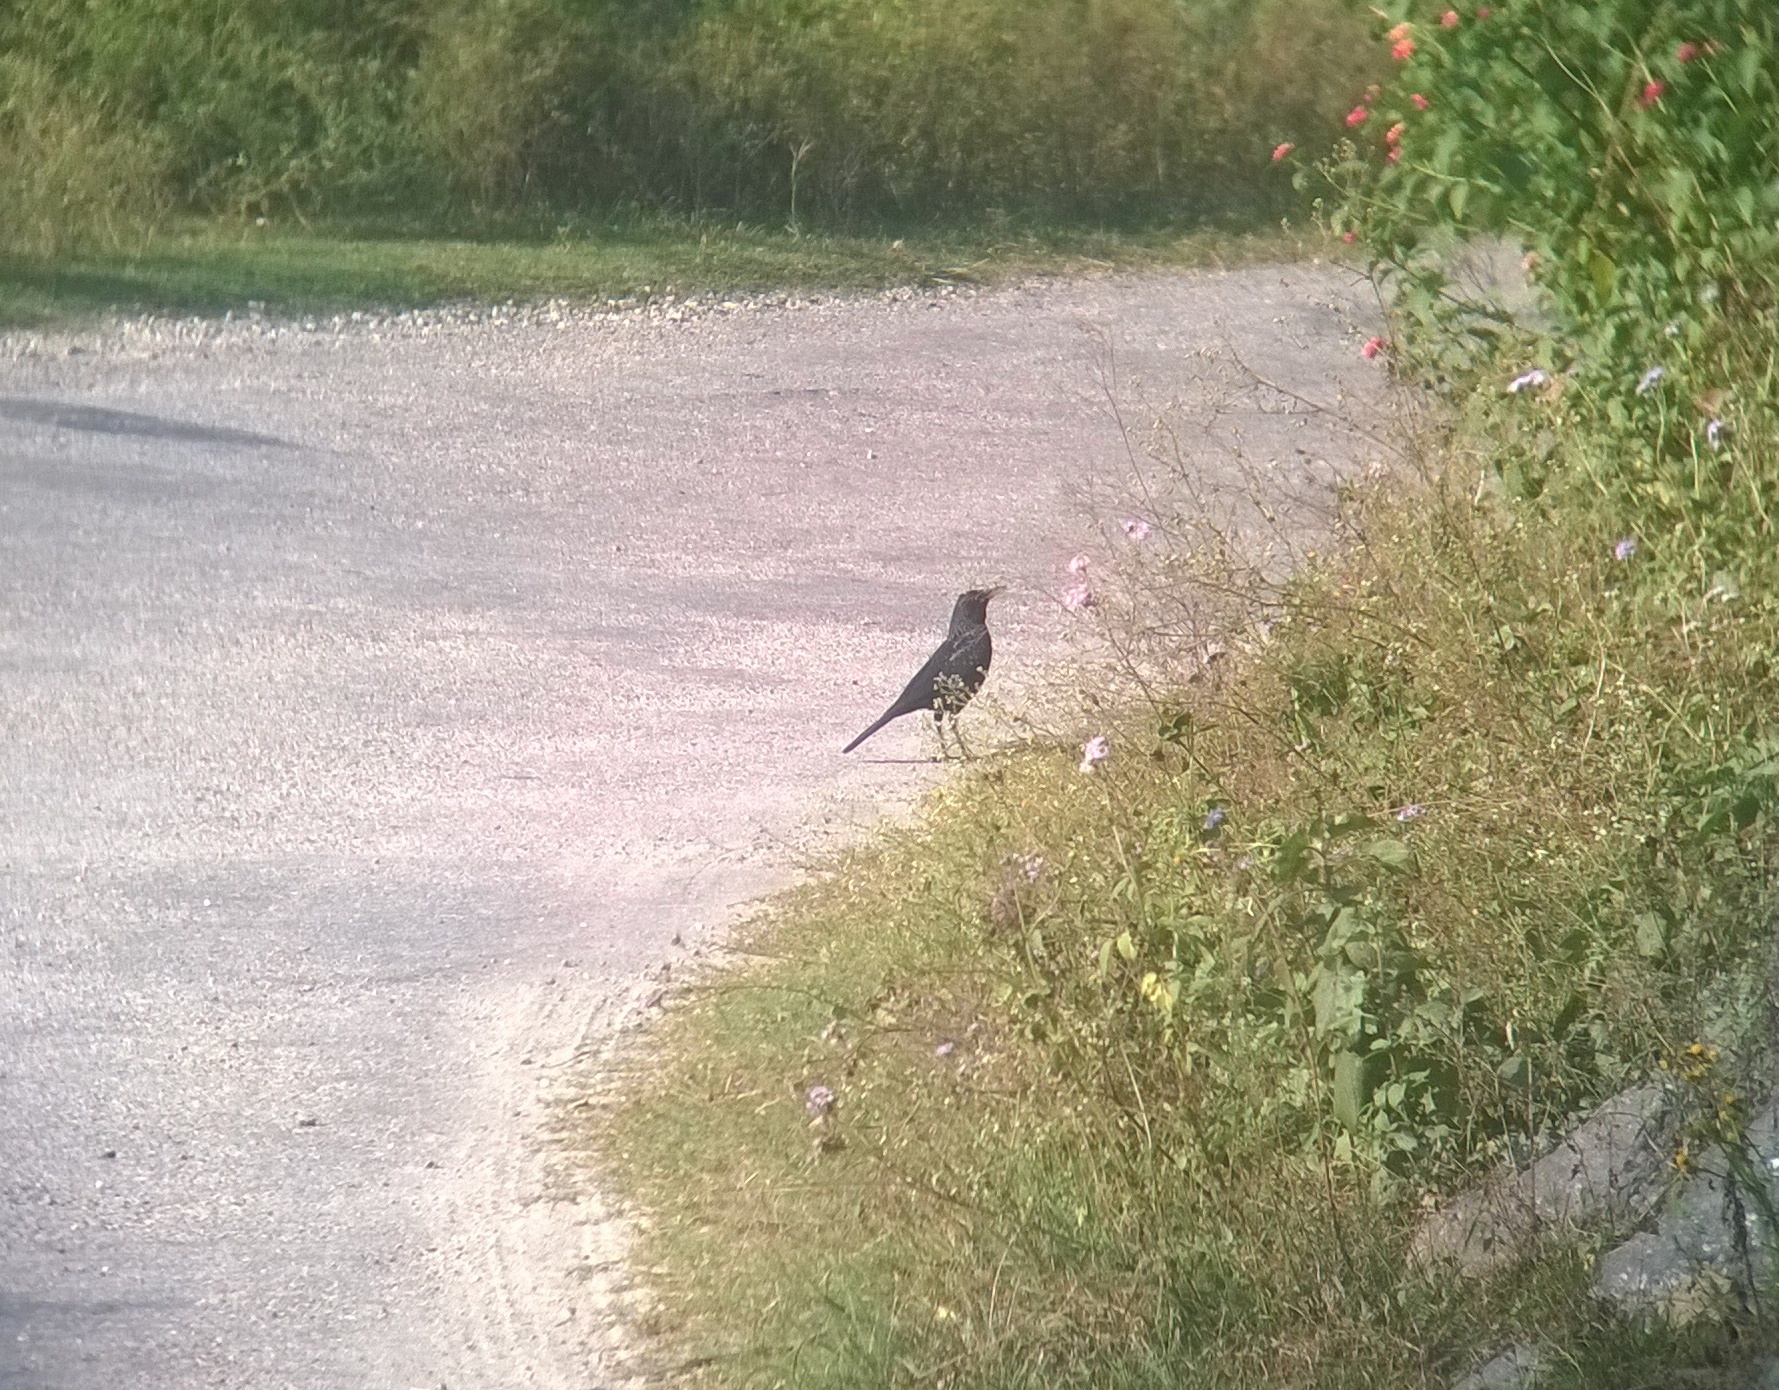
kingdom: Animalia
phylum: Chordata
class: Aves
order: Passeriformes
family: Muscicapidae
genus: Myophonus
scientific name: Myophonus caeruleus
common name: Blue whistling-thrush
